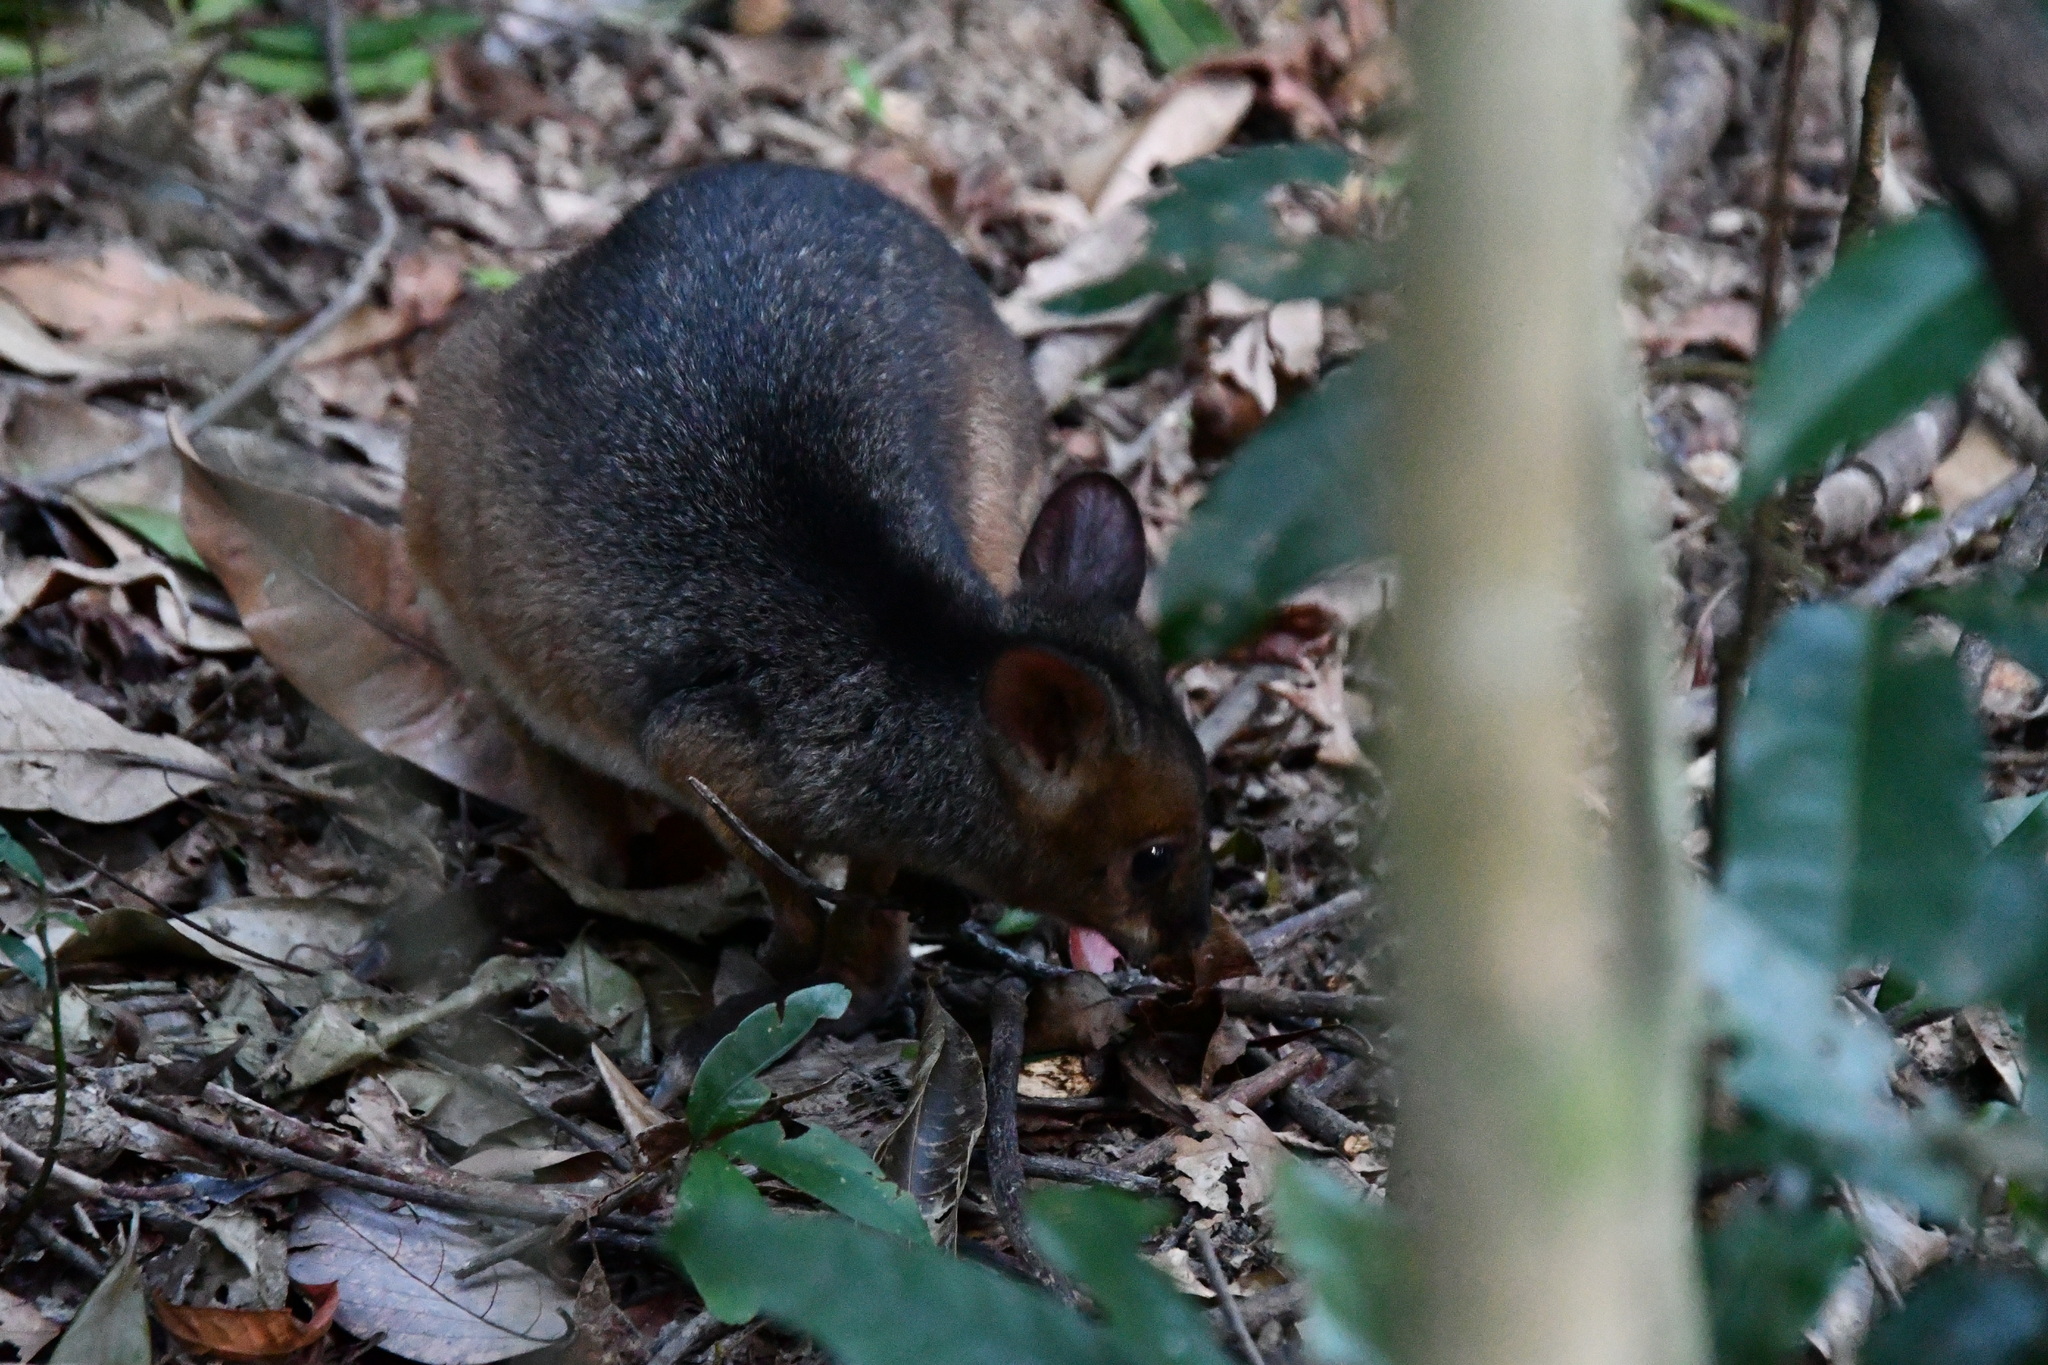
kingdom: Animalia
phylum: Chordata
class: Mammalia
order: Diprotodontia
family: Macropodidae
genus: Thylogale
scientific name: Thylogale stigmatica
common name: Red-legged pademelon
